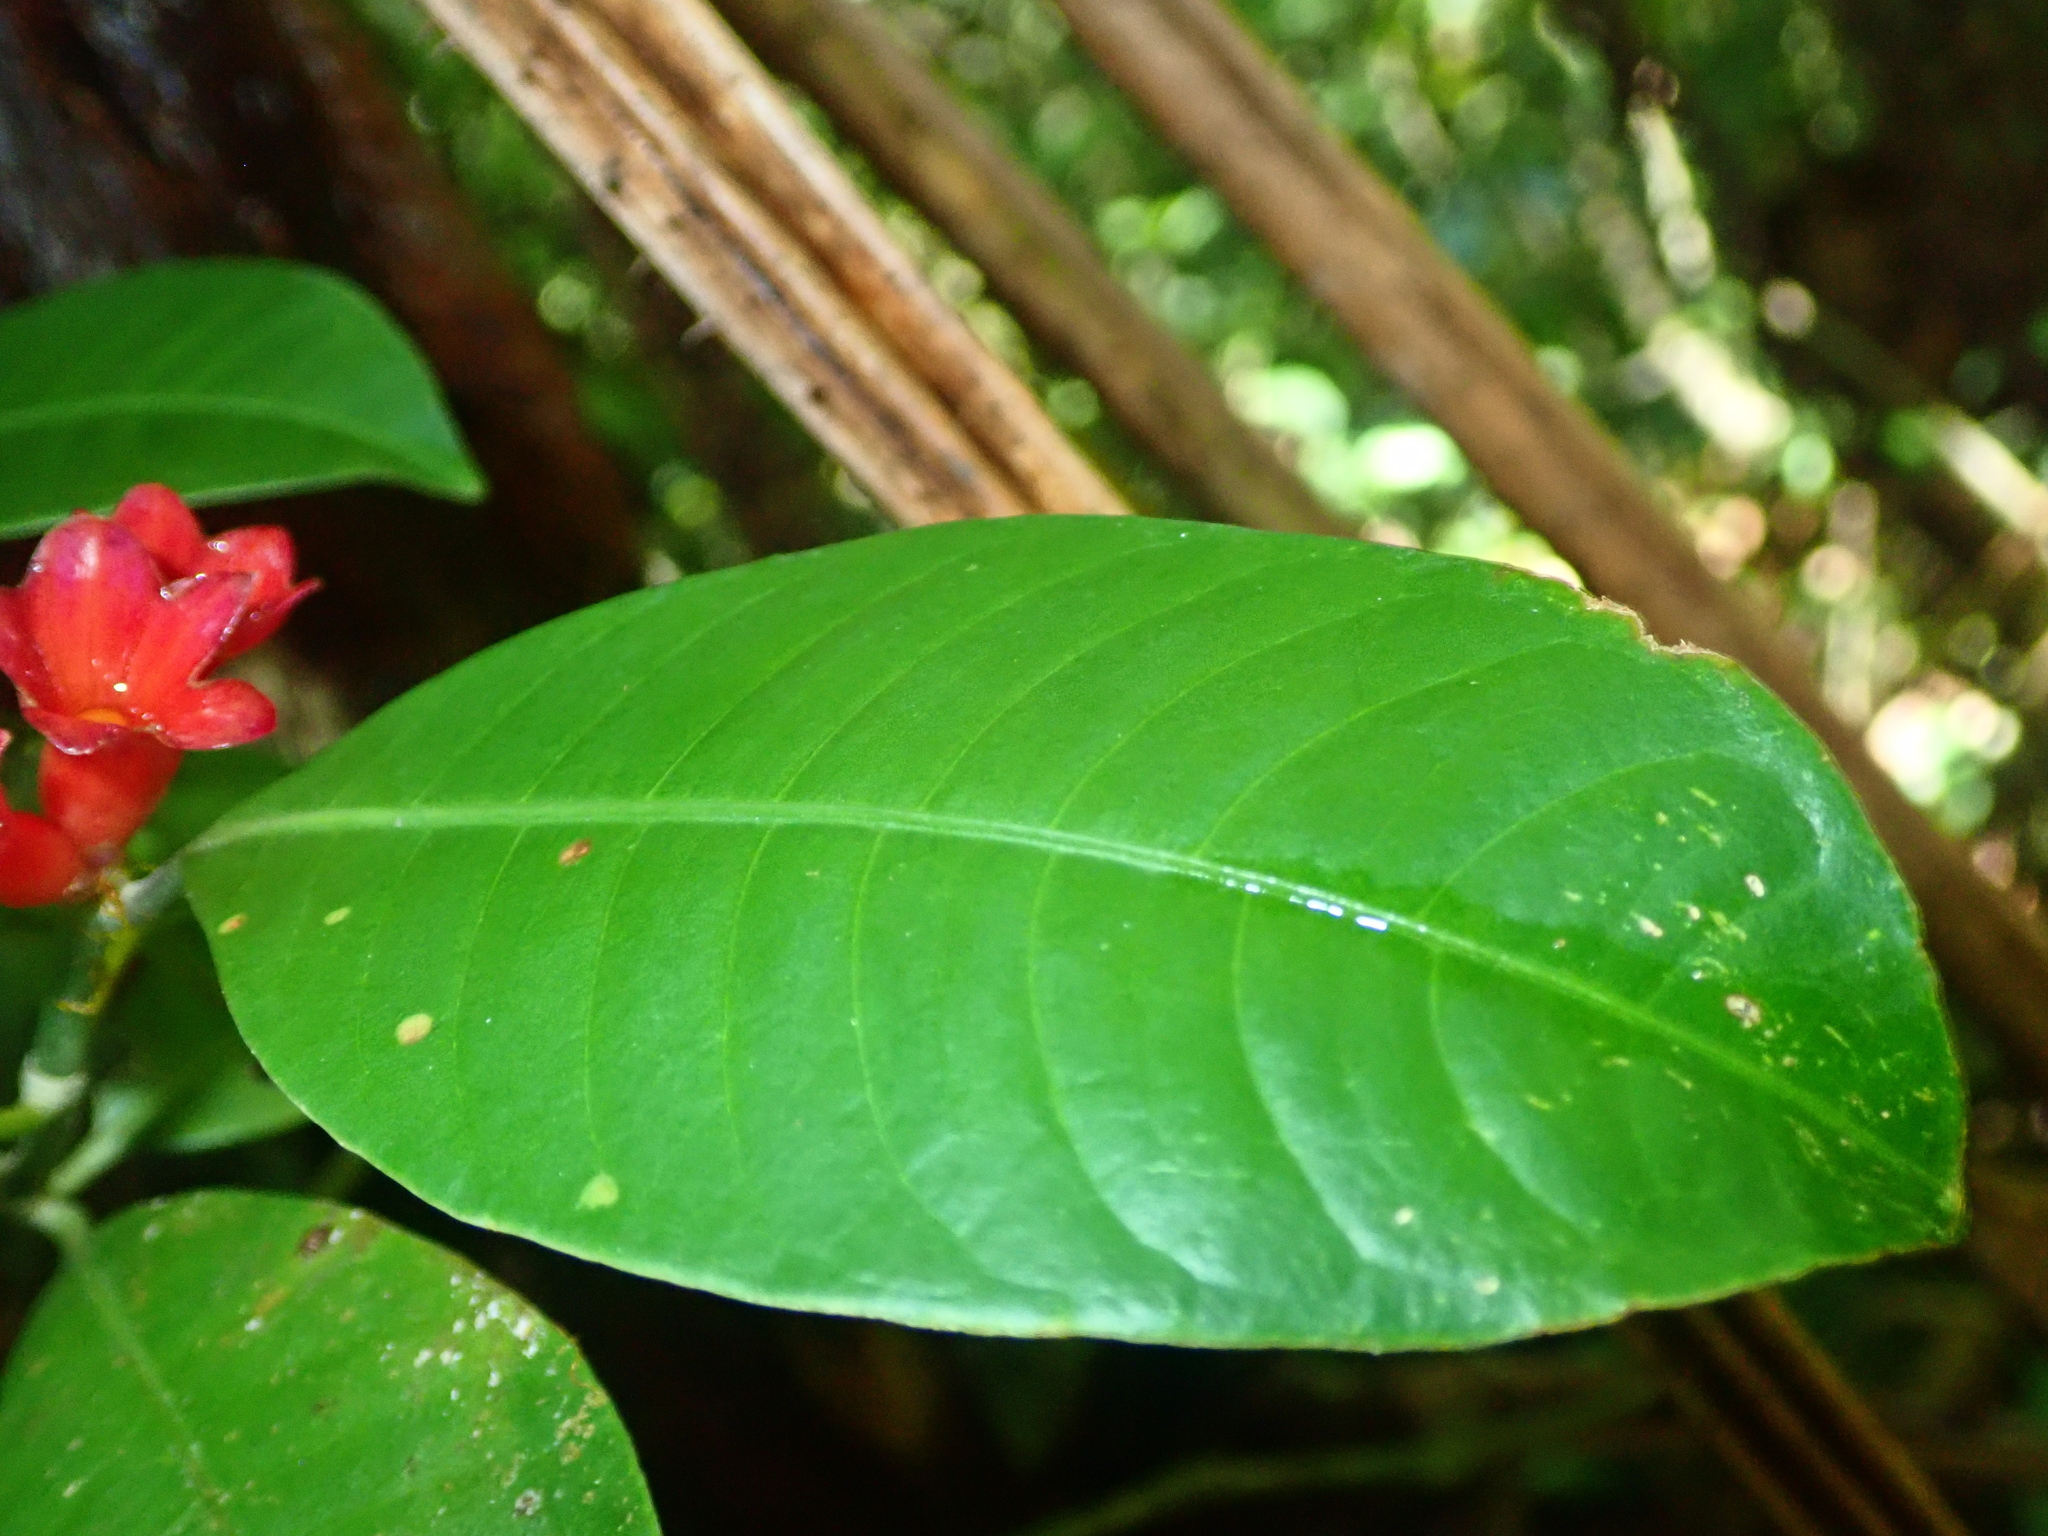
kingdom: Plantae
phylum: Tracheophyta
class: Magnoliopsida
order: Gentianales
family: Rubiaceae
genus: Psychotria
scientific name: Psychotria nuda
